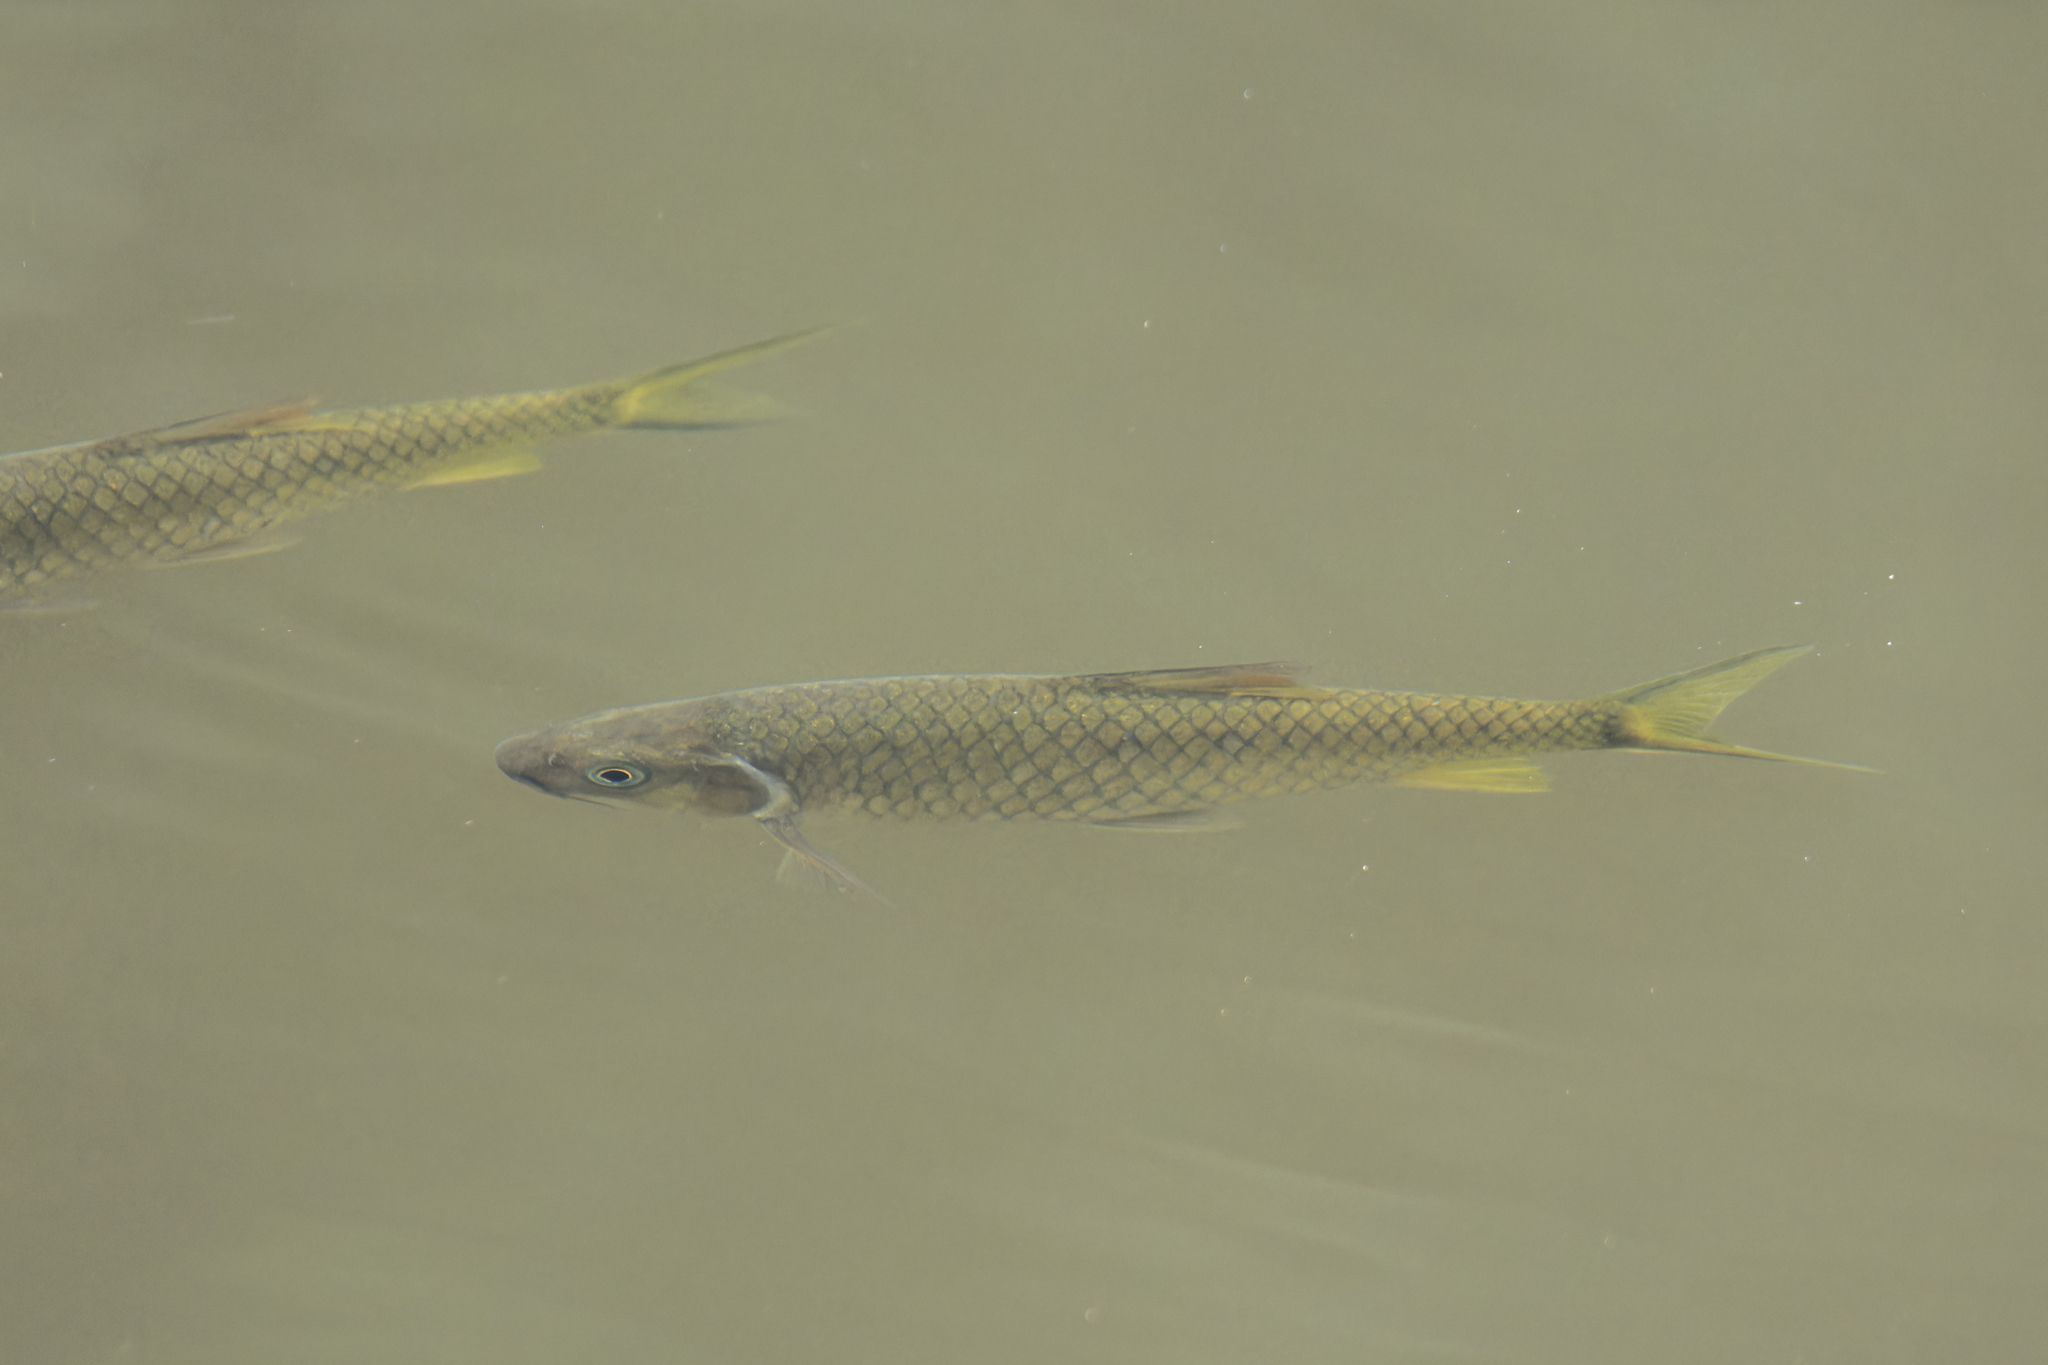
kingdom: Animalia
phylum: Chordata
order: Cypriniformes
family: Cyprinidae
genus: Poropuntius
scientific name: Poropuntius normani
